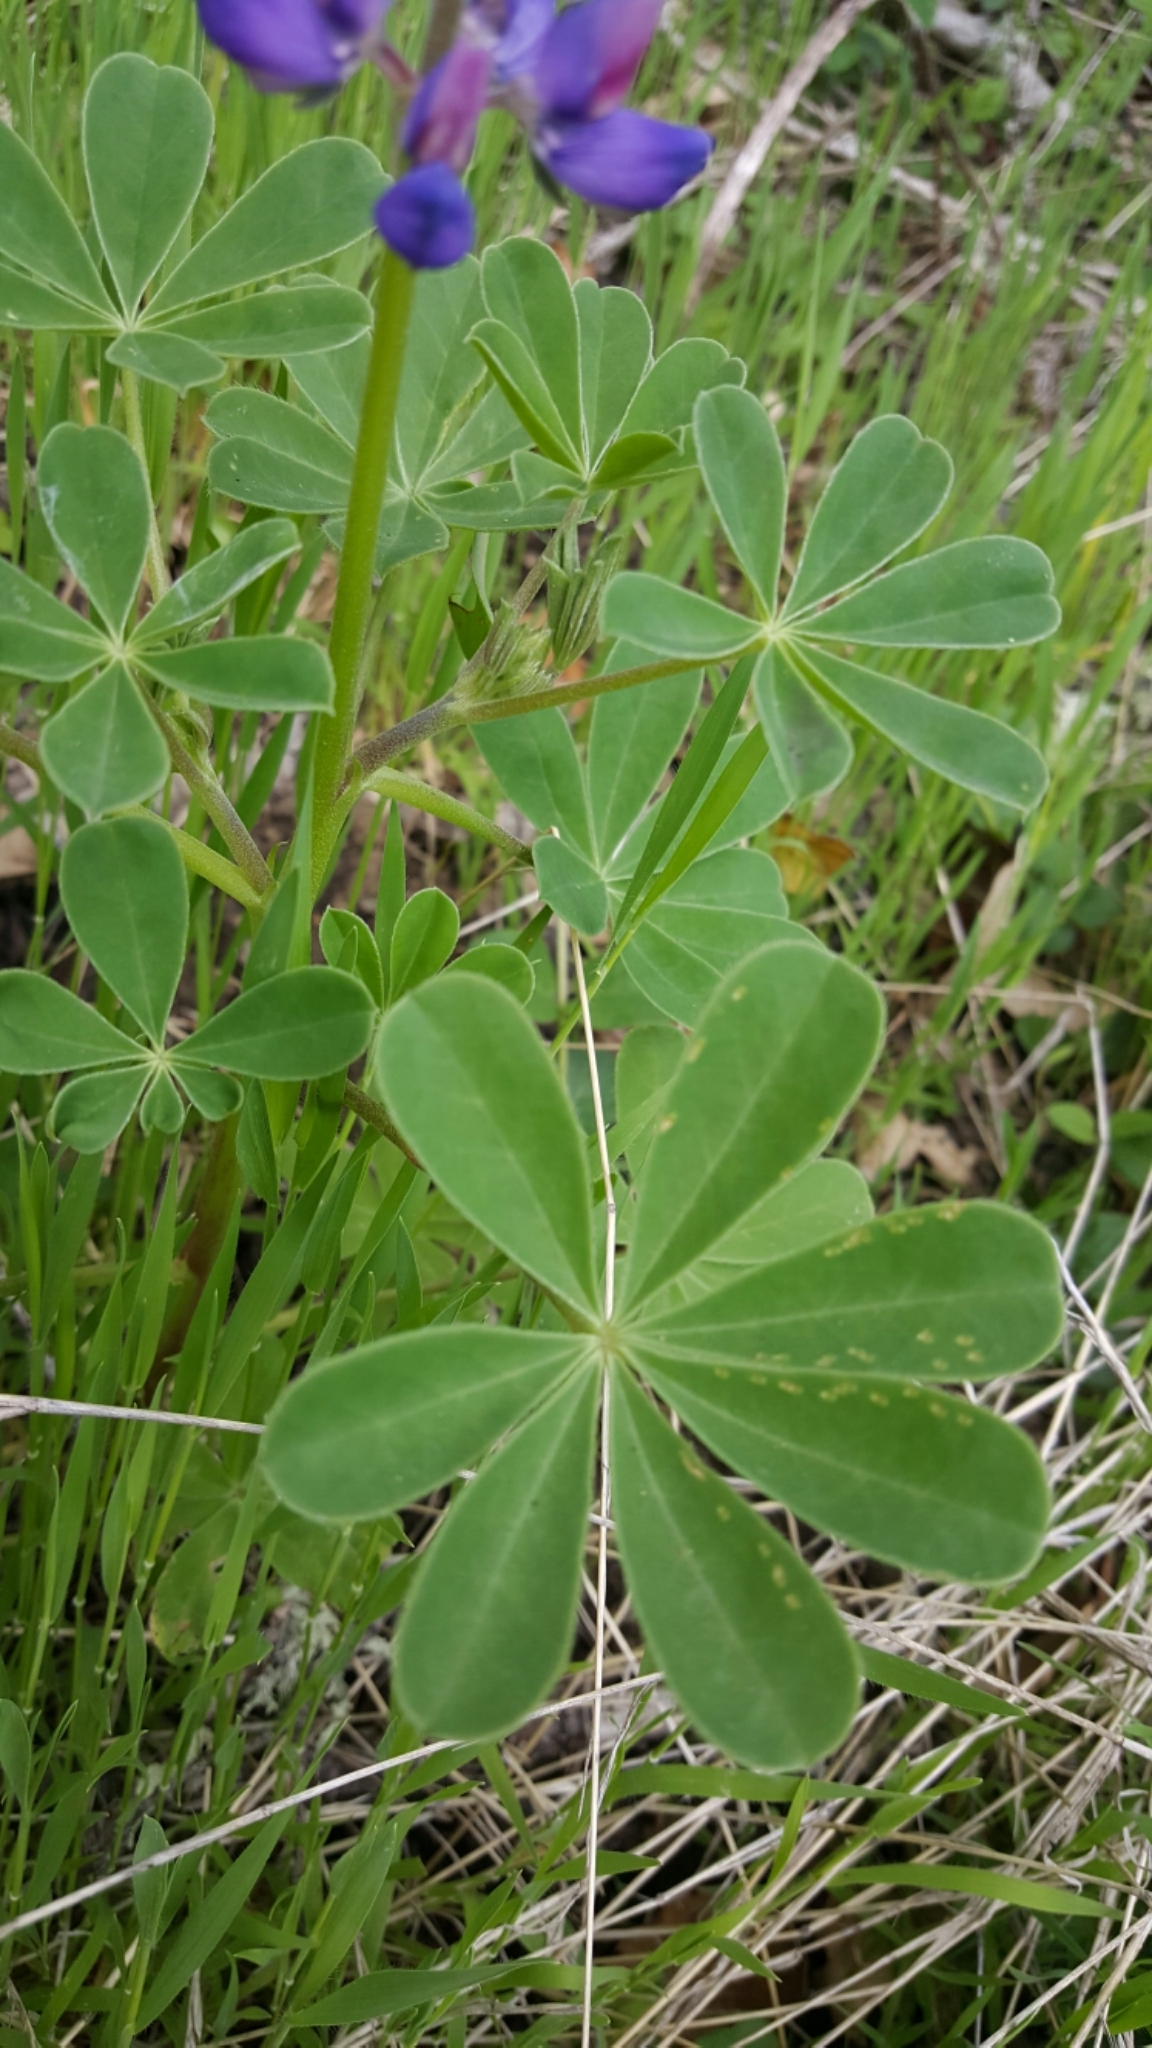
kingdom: Plantae
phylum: Tracheophyta
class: Magnoliopsida
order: Fabales
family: Fabaceae
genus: Lupinus
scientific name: Lupinus succulentus
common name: Arroyo lupine
